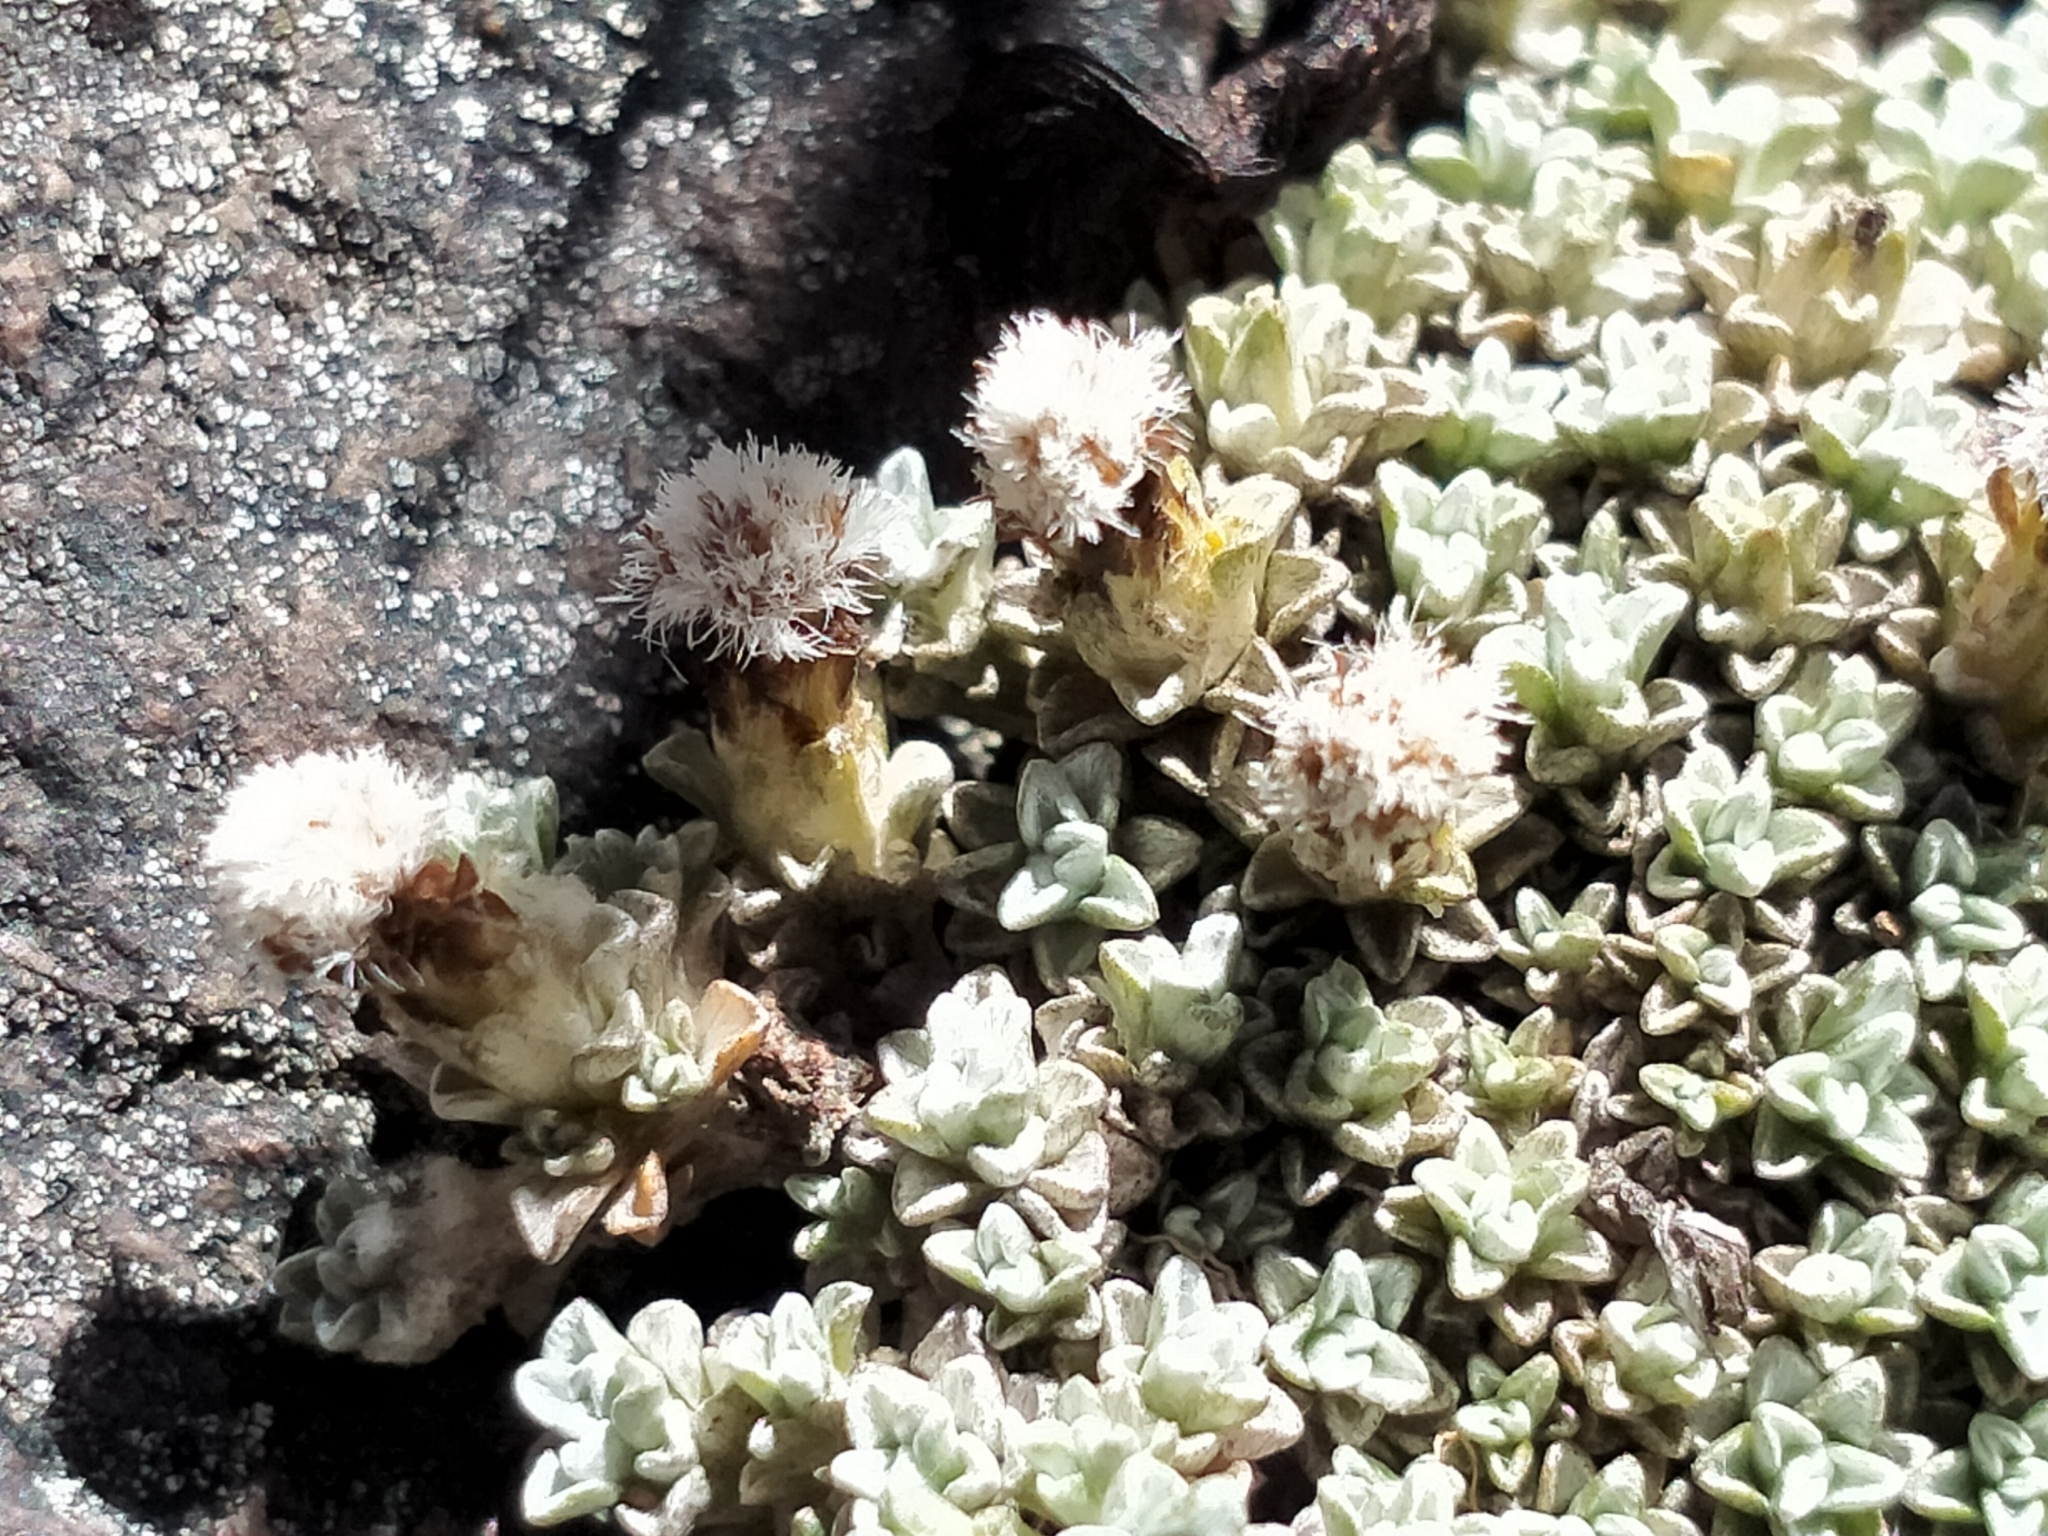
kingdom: Plantae
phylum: Tracheophyta
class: Magnoliopsida
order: Asterales
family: Asteraceae
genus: Raoulia
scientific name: Raoulia apicinigra
